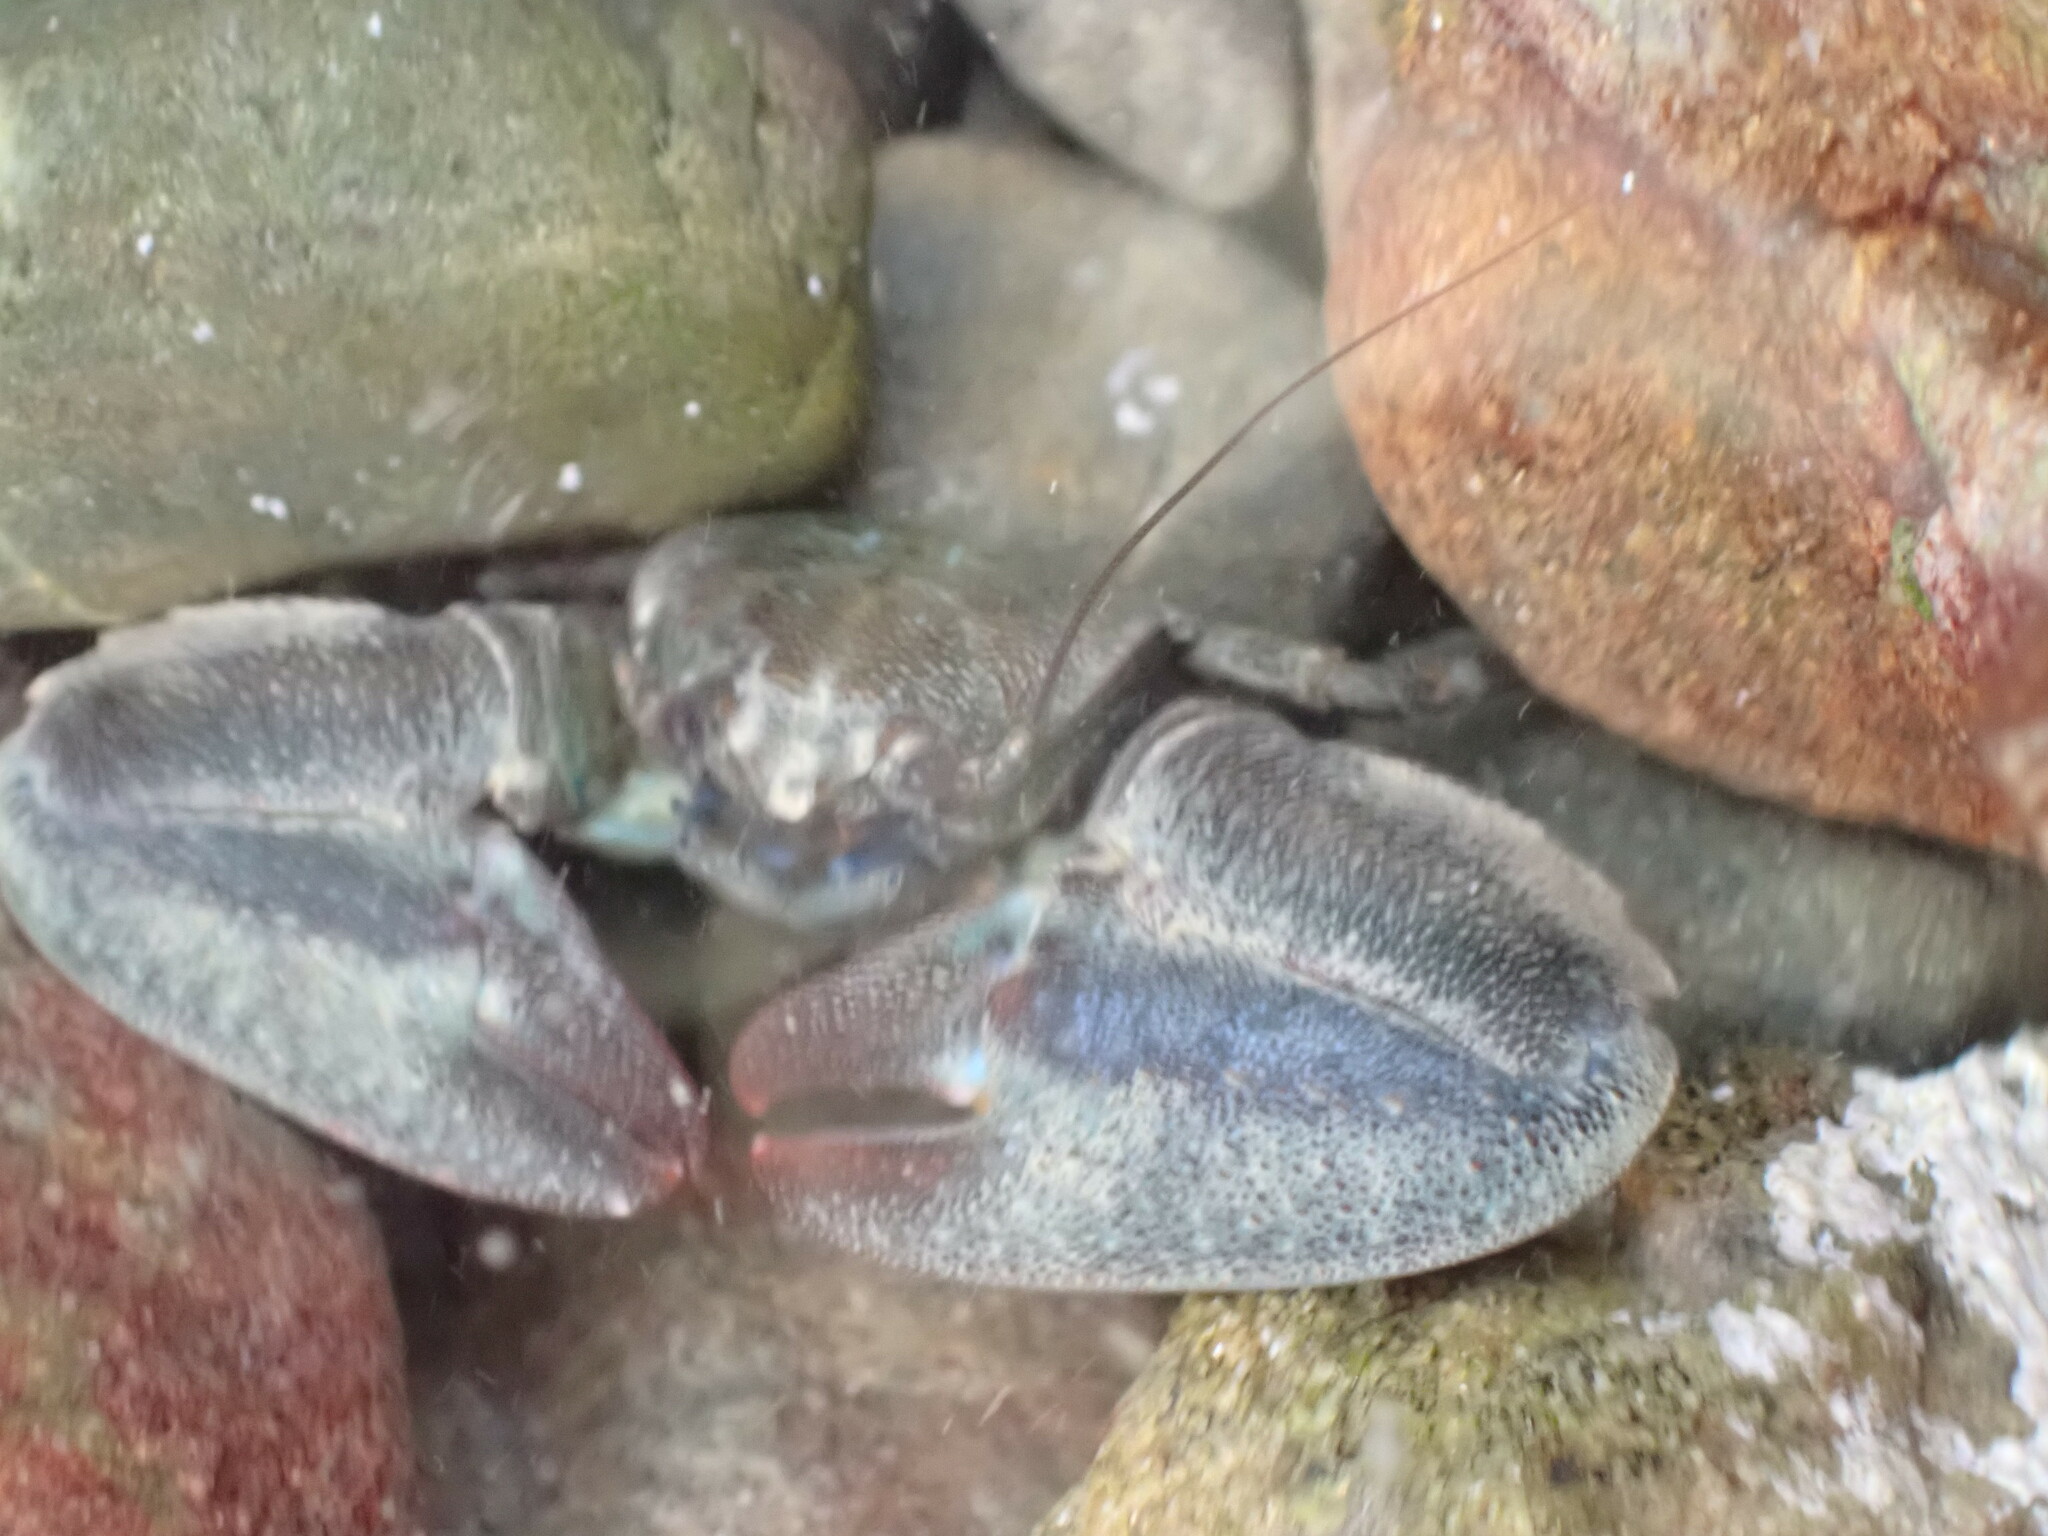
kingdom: Animalia
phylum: Arthropoda
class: Malacostraca
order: Decapoda
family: Porcellanidae
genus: Petrolisthes
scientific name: Petrolisthes elongatus
